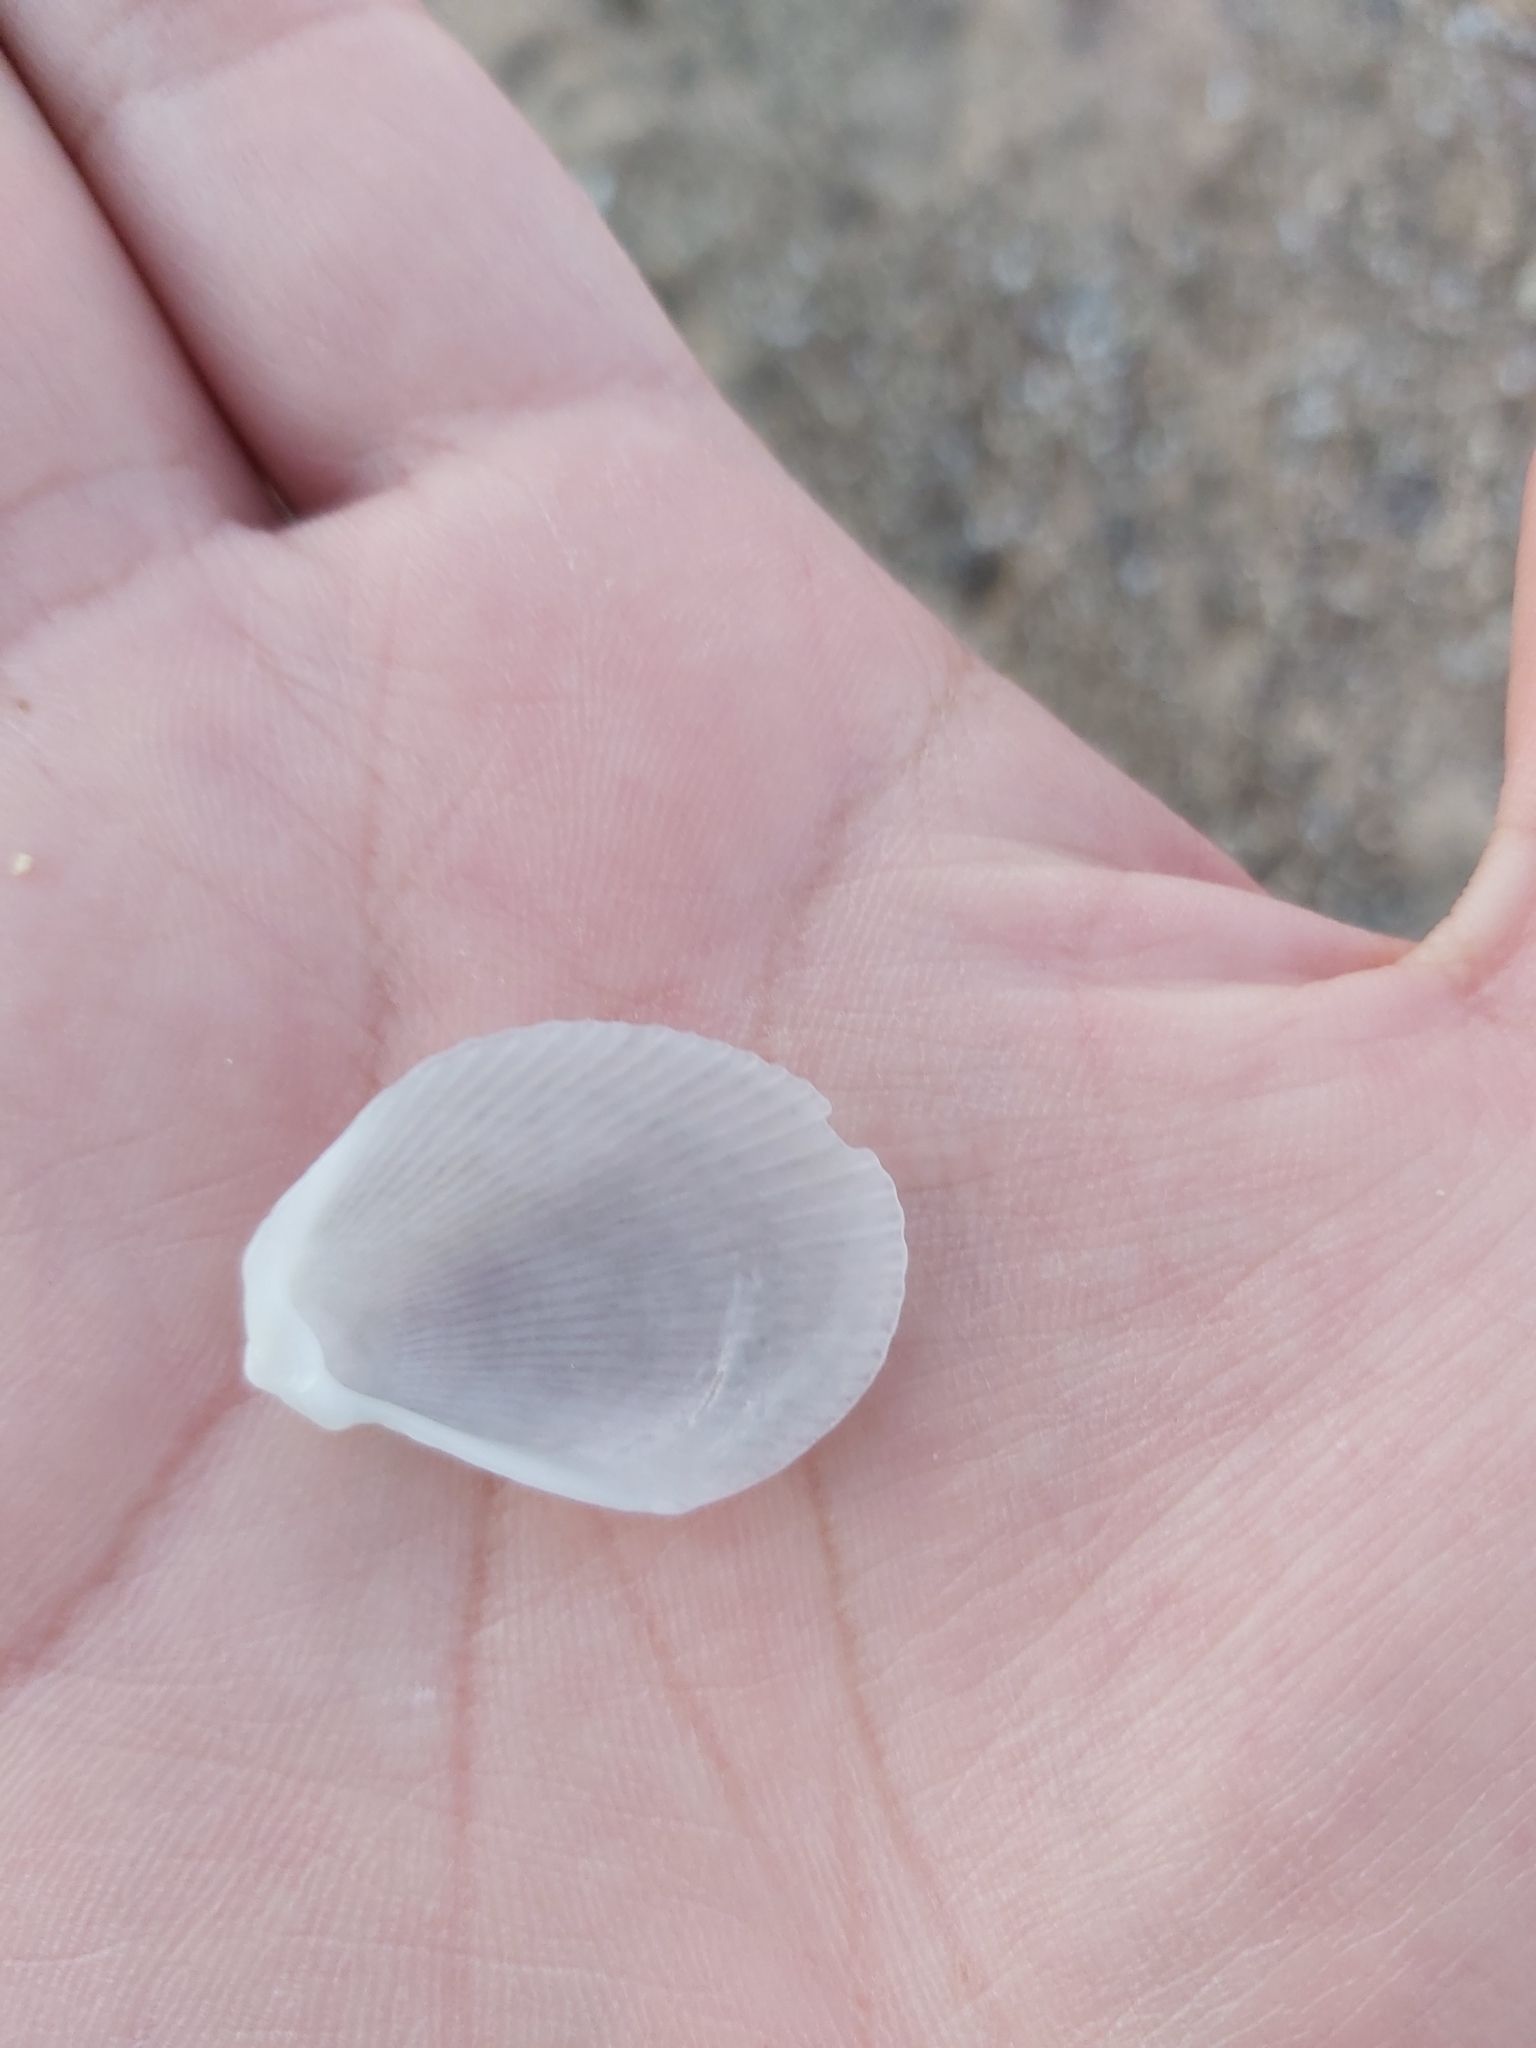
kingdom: Animalia
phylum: Mollusca
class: Bivalvia
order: Limida
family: Limidae
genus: Lima
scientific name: Lima nimbifer
